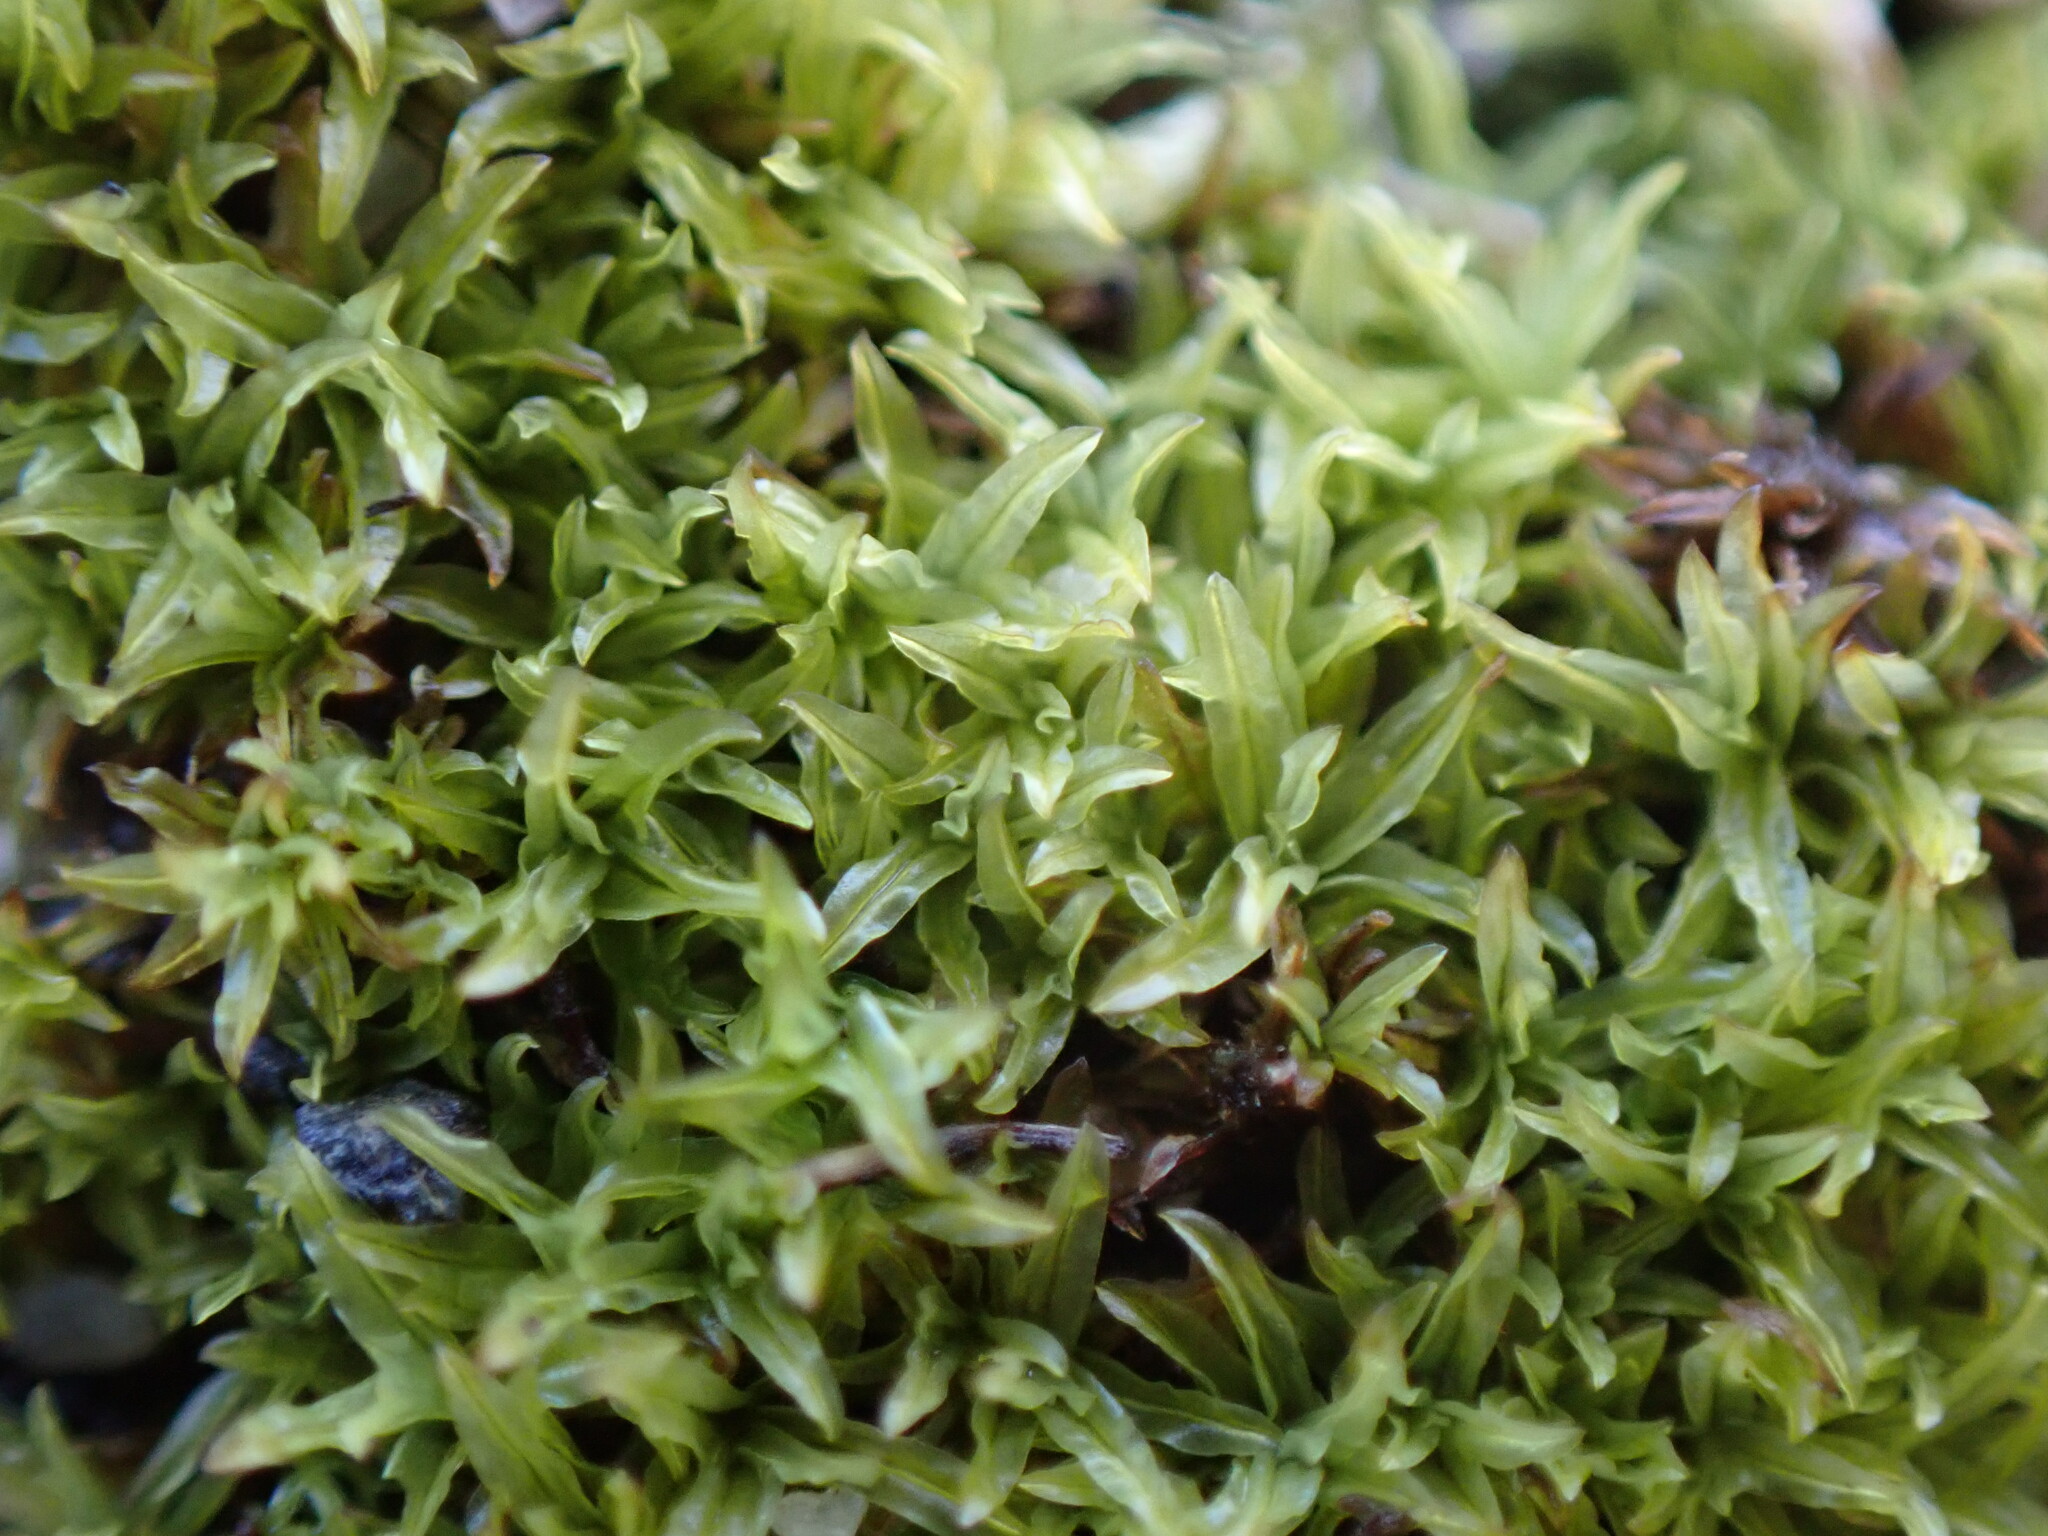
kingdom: Plantae
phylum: Bryophyta
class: Bryopsida
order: Pottiales
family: Pottiaceae
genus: Barbula
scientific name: Barbula unguiculata
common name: Prickly beard moss
